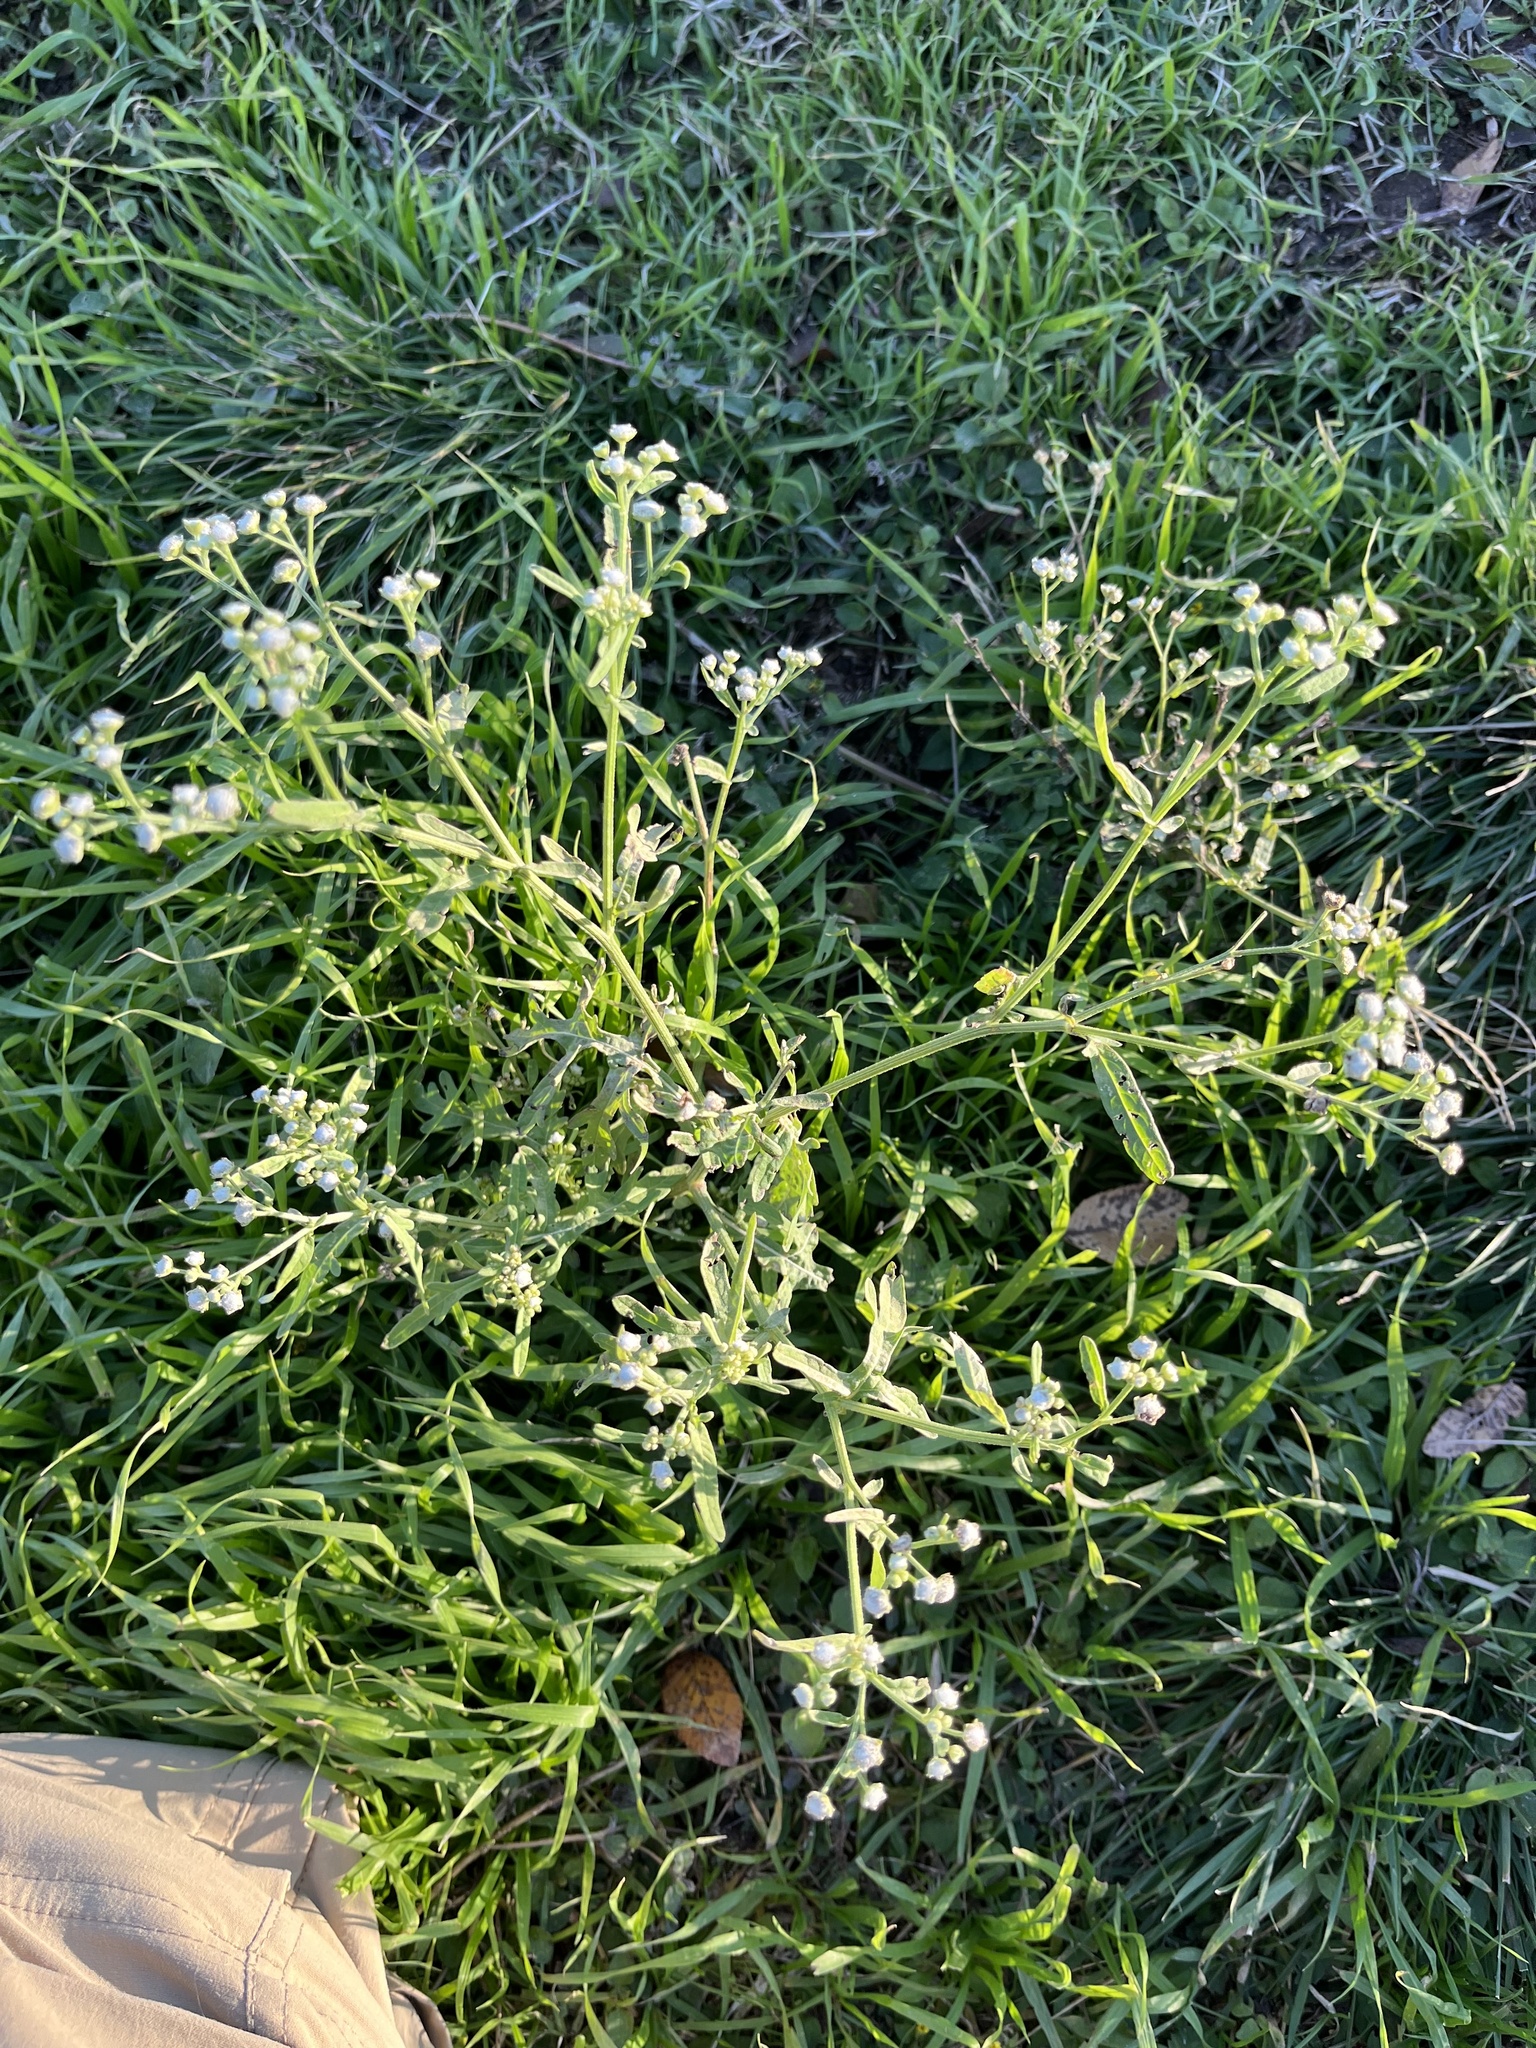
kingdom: Plantae
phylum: Tracheophyta
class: Magnoliopsida
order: Asterales
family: Asteraceae
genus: Parthenium
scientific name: Parthenium hysterophorus
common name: Santa maria feverfew
